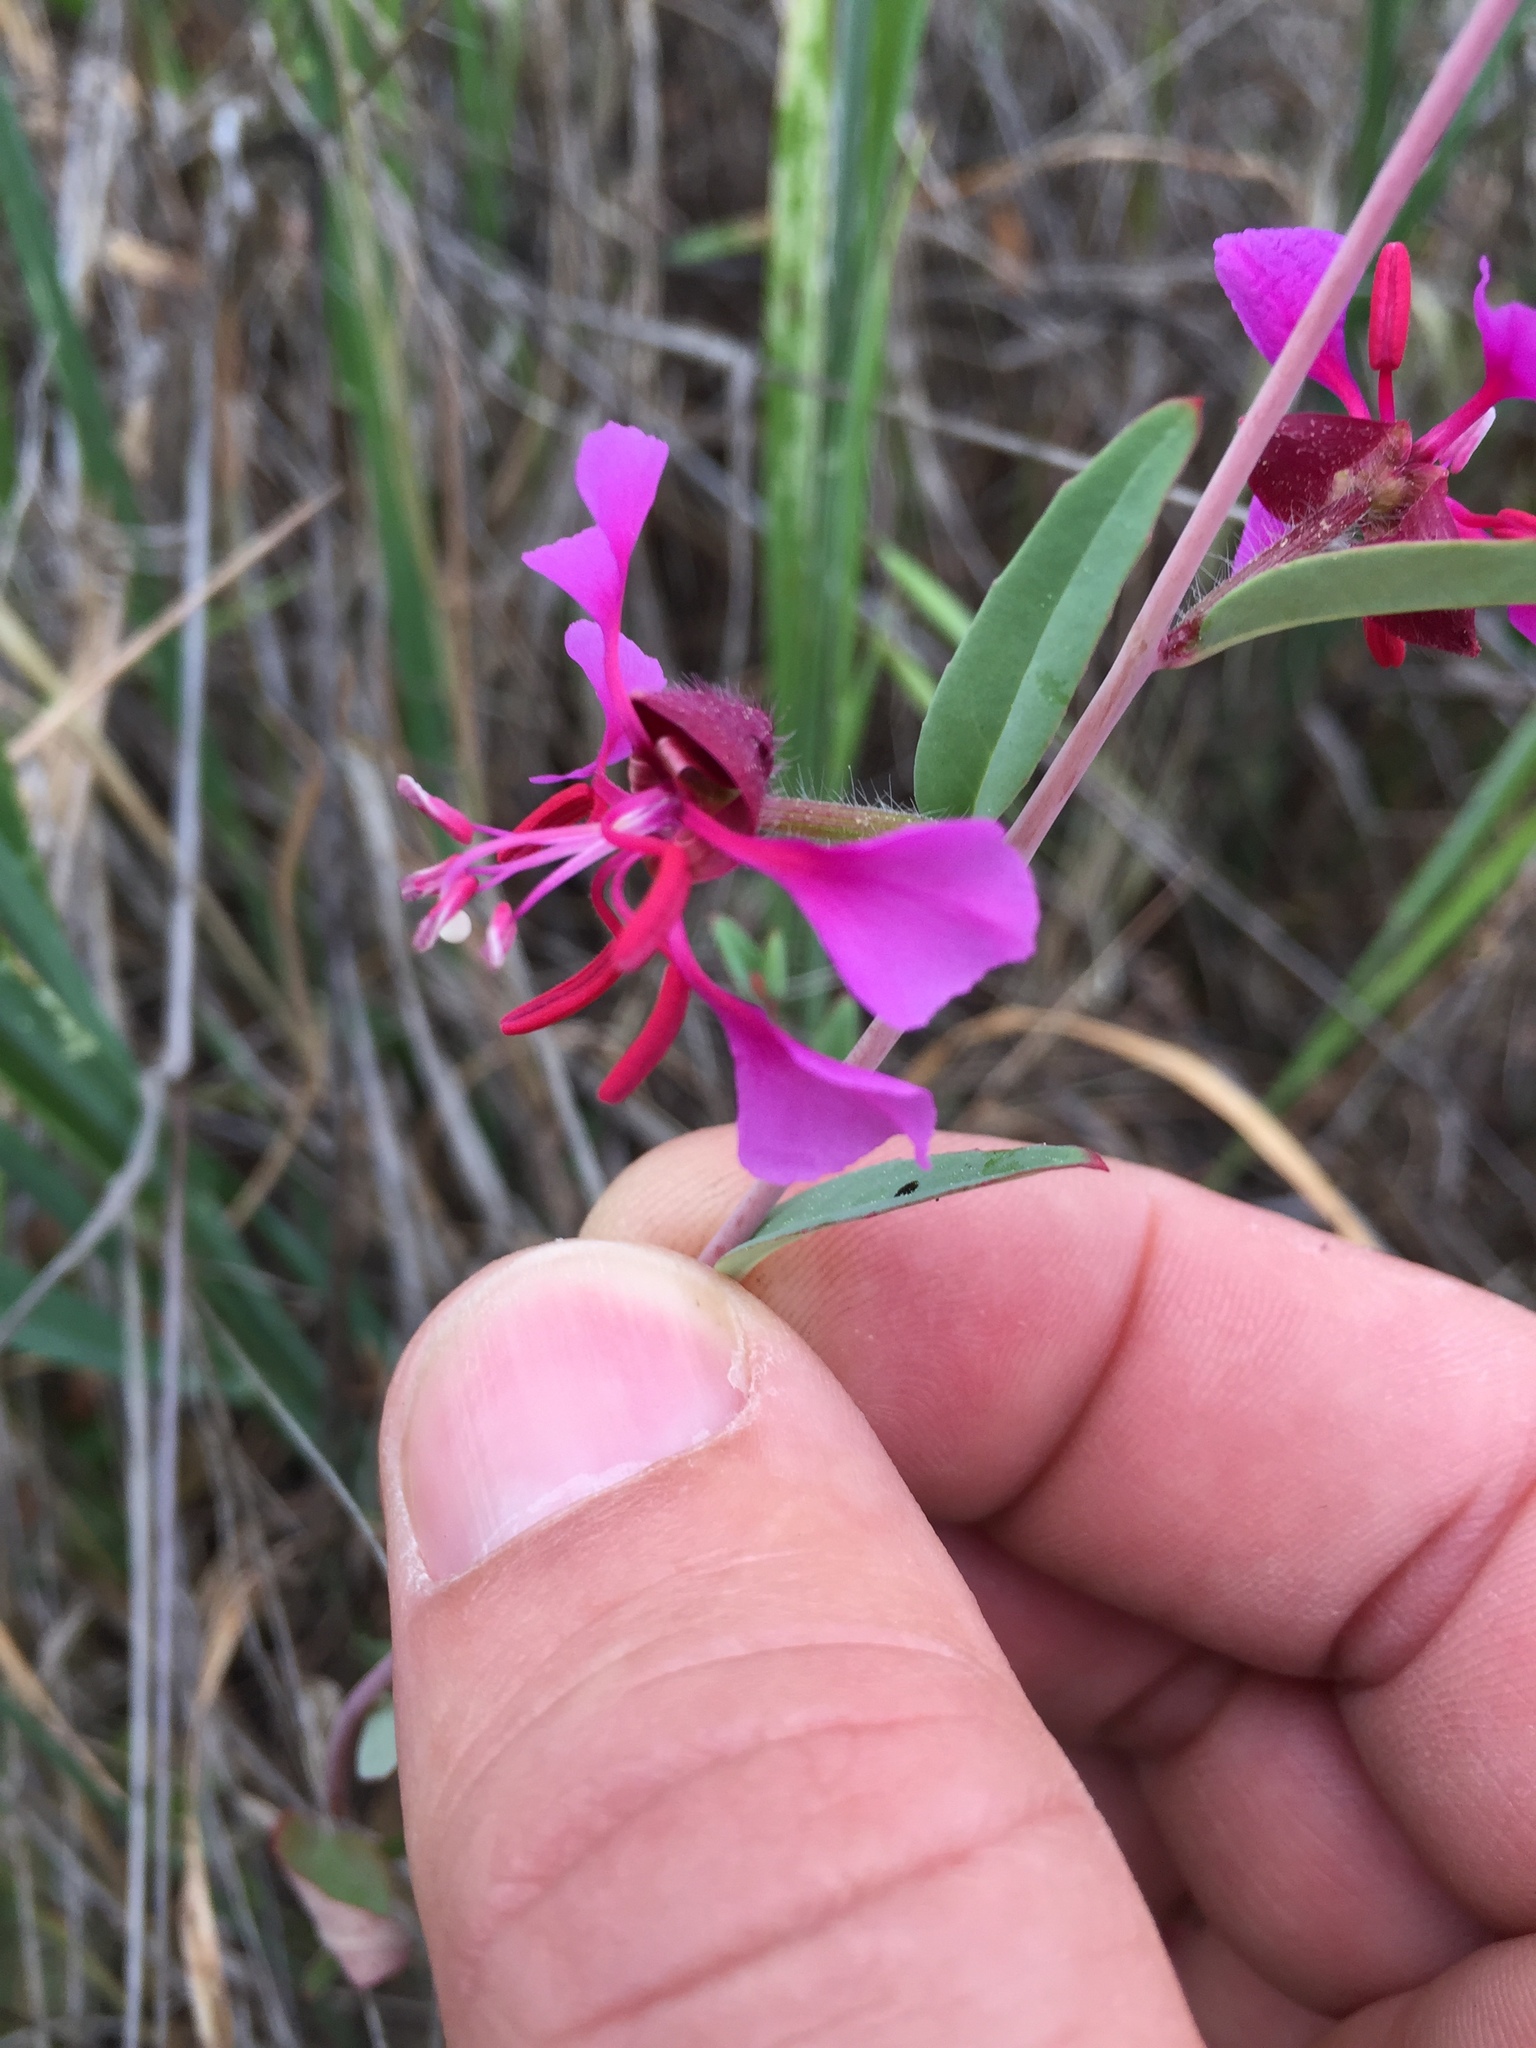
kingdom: Plantae
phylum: Tracheophyta
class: Magnoliopsida
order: Myrtales
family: Onagraceae
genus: Clarkia
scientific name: Clarkia unguiculata
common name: Clarkia
